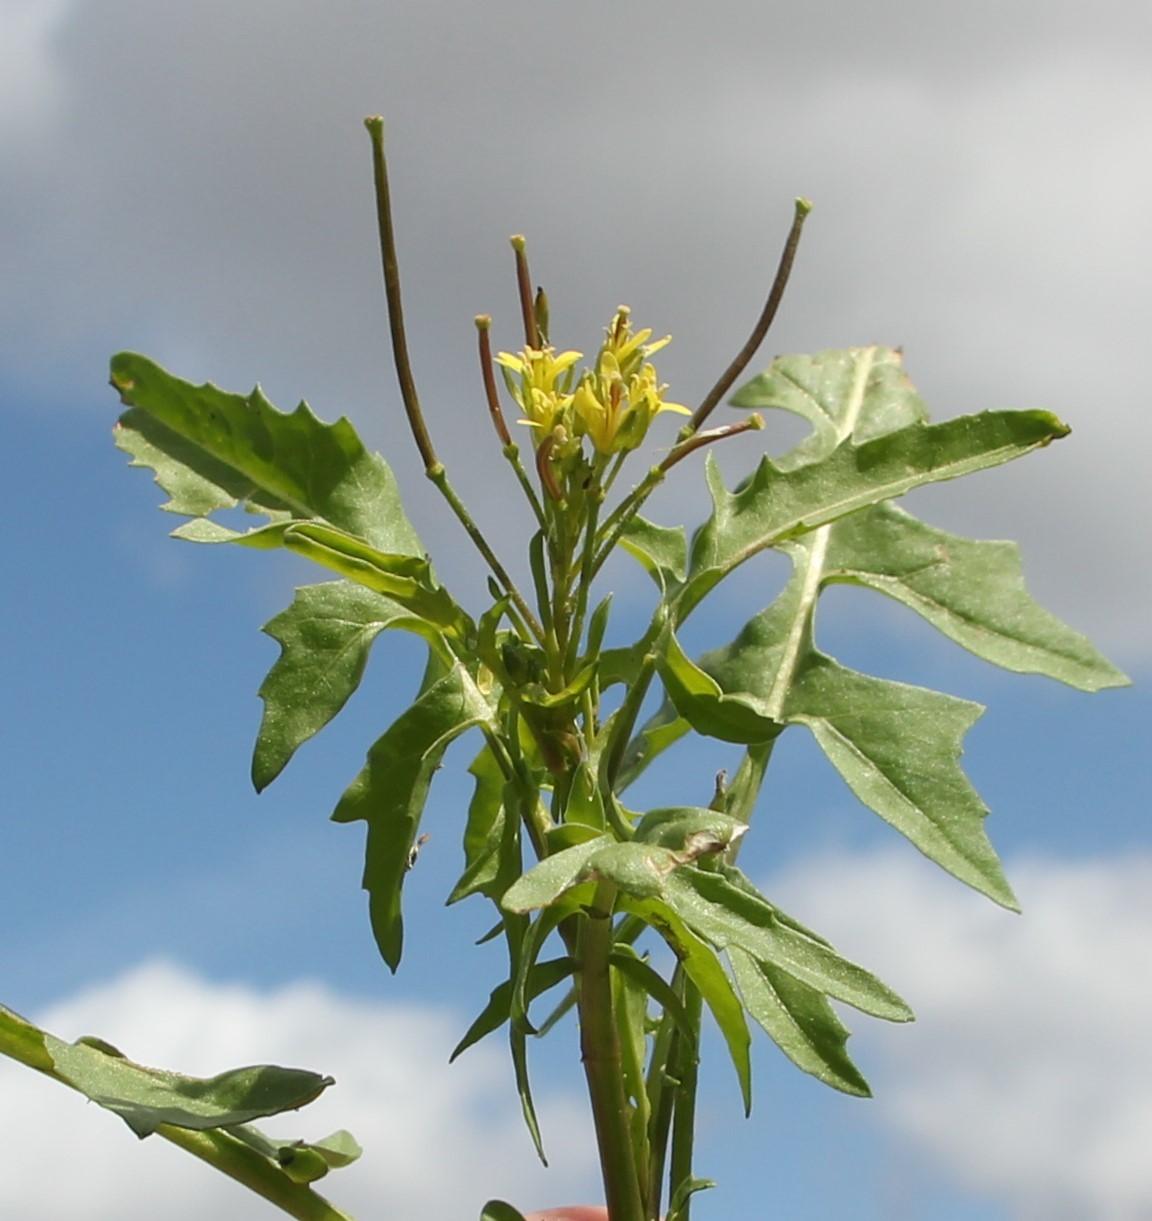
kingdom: Plantae
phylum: Tracheophyta
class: Magnoliopsida
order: Brassicales
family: Brassicaceae
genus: Sisymbrium
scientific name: Sisymbrium irio
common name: London rocket
